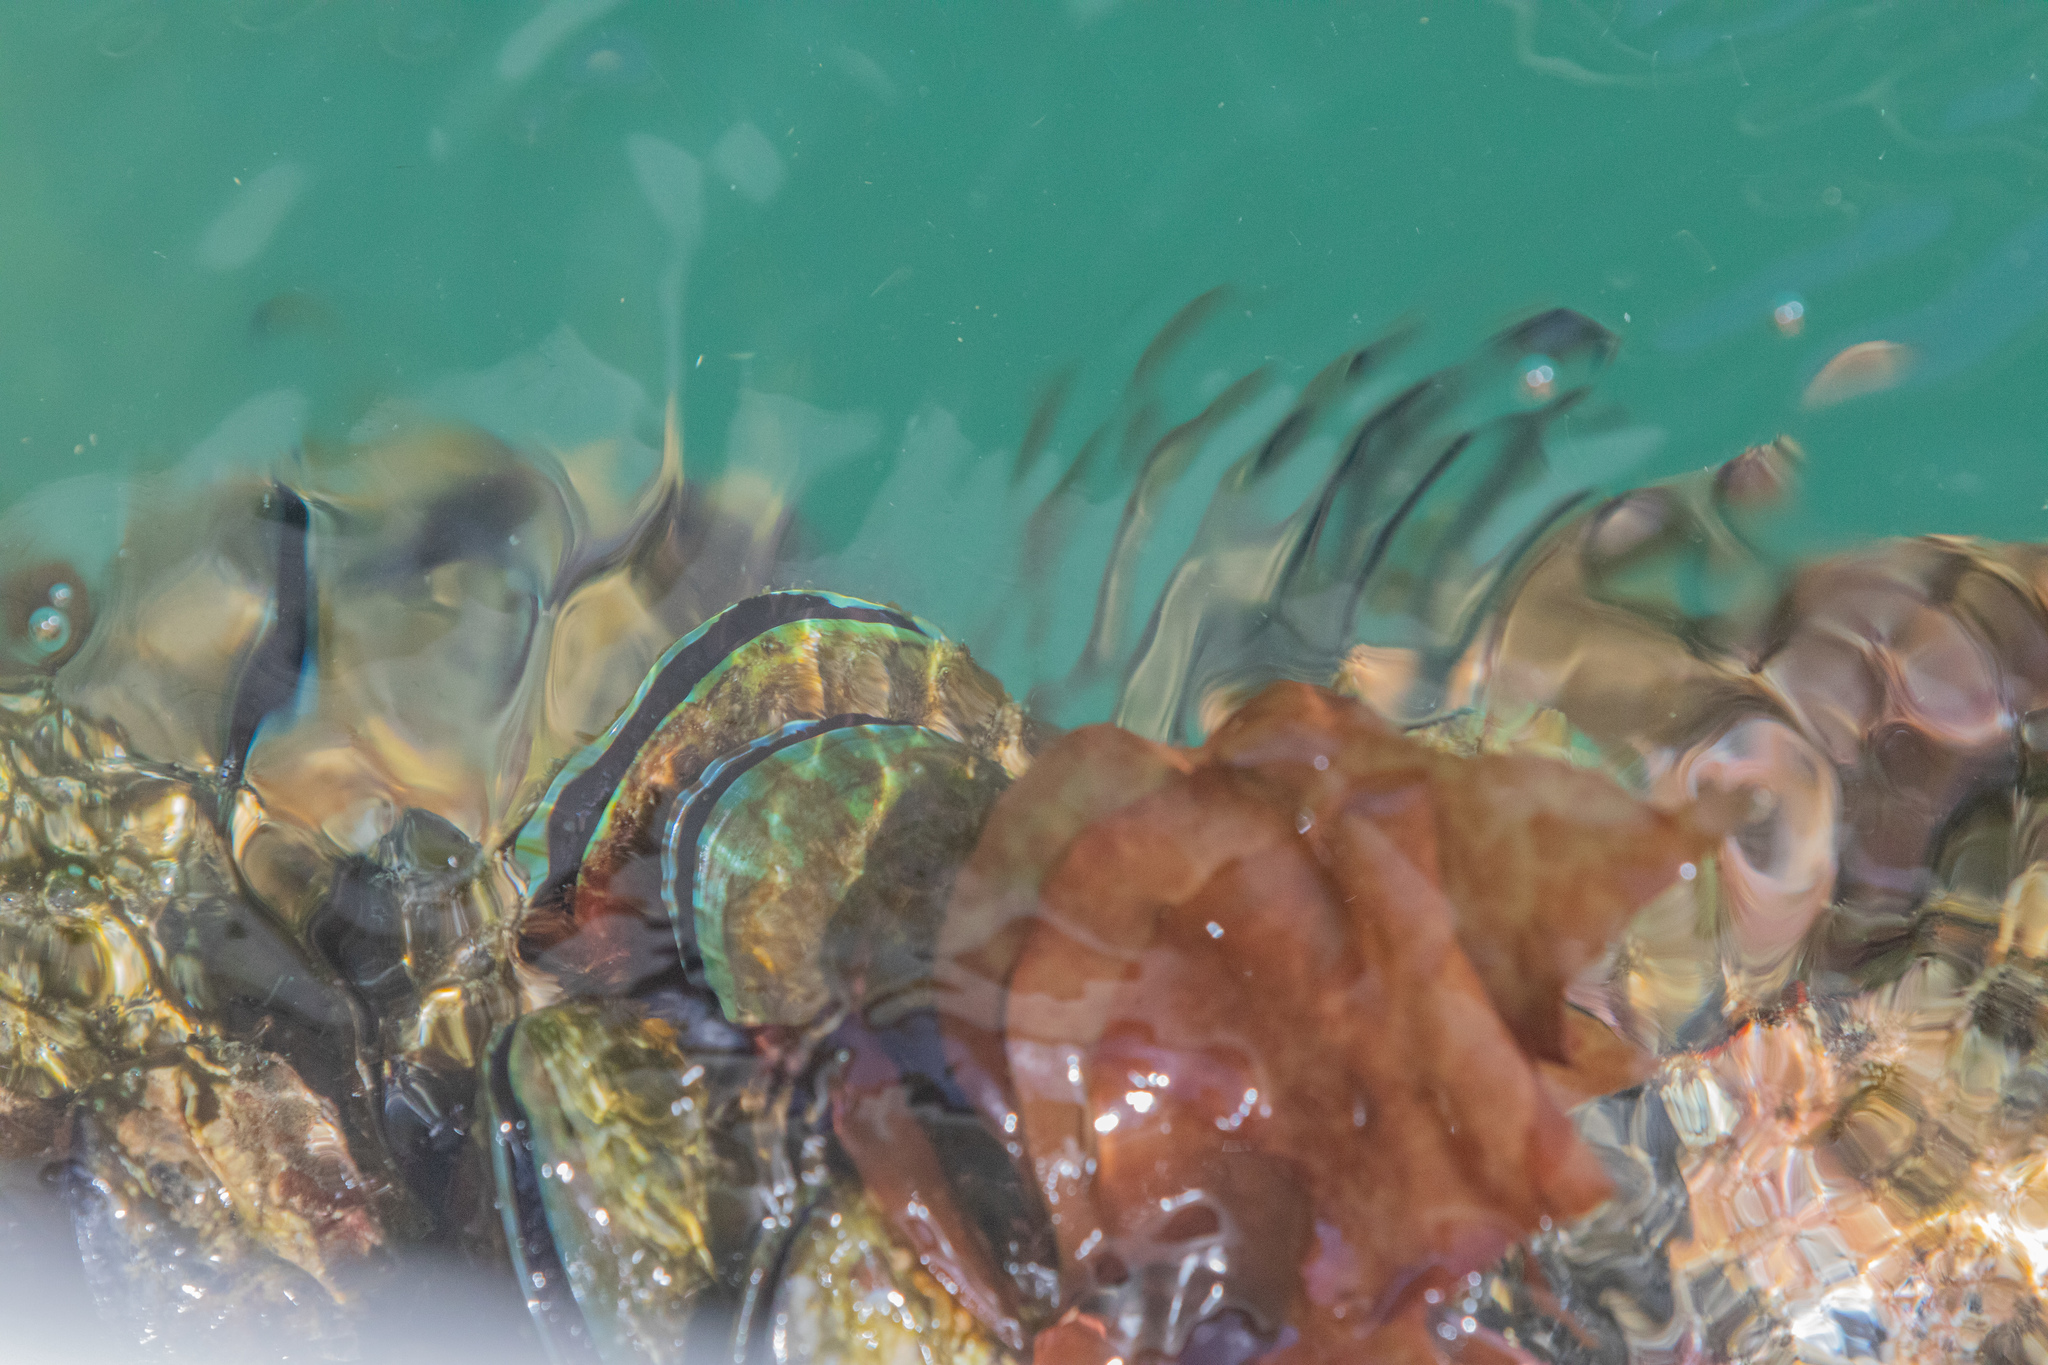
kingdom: Animalia
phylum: Mollusca
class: Bivalvia
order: Mytilida
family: Mytilidae
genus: Perna
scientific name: Perna canaliculus
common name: New zealand greenshelltm
